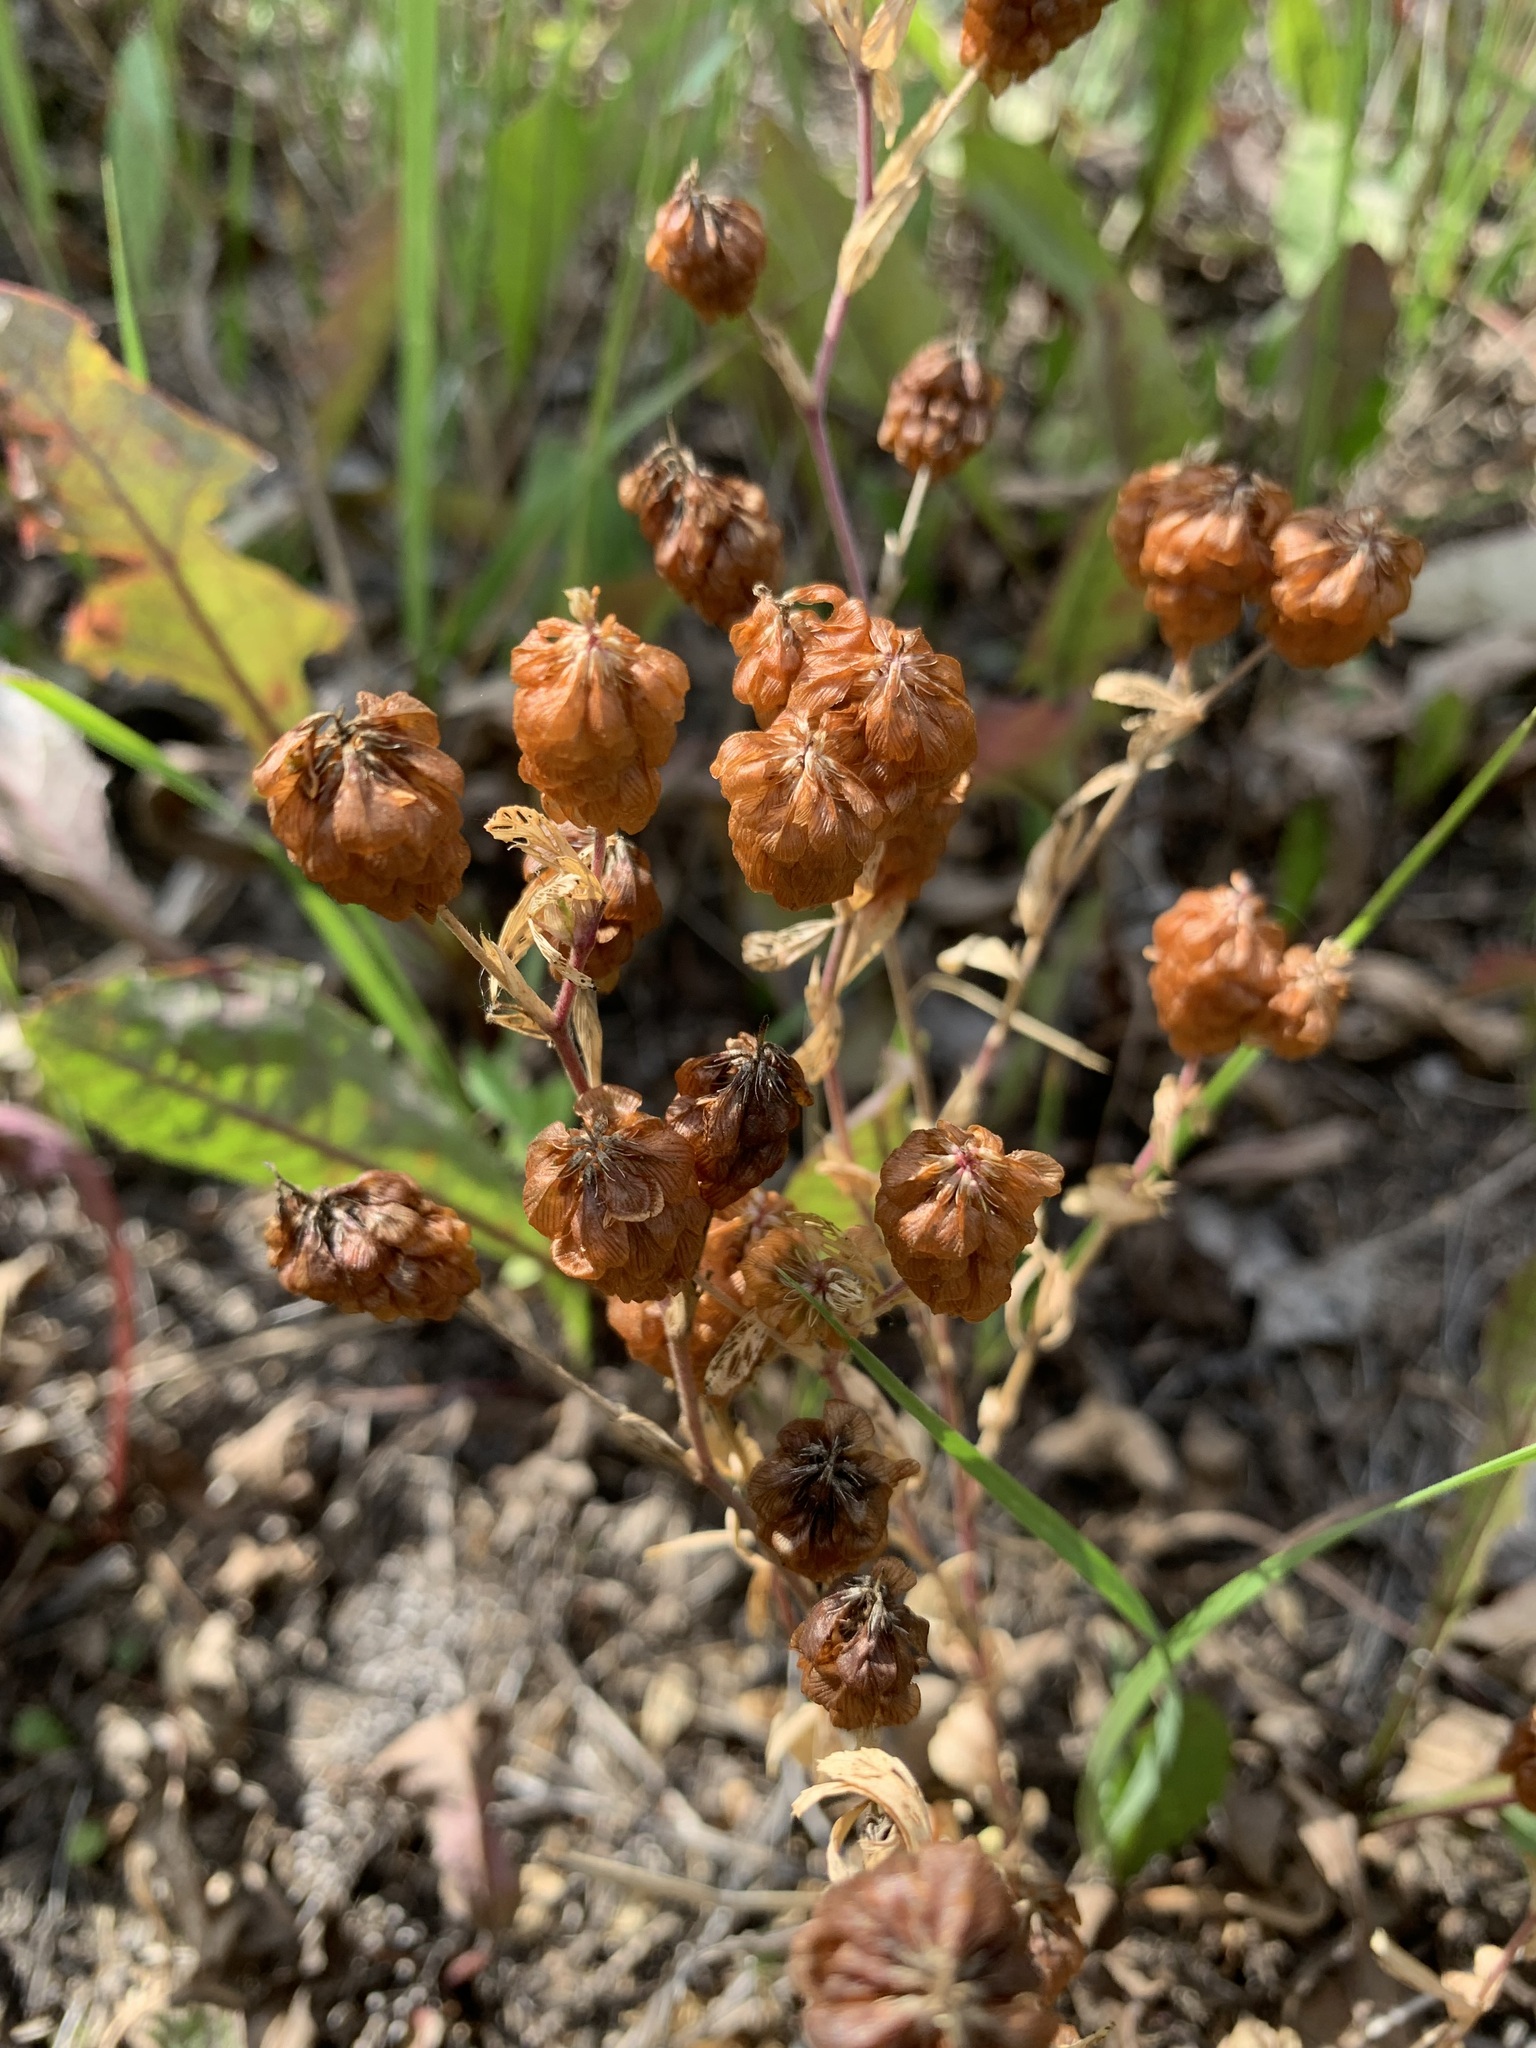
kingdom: Plantae
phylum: Tracheophyta
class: Magnoliopsida
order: Fabales
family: Fabaceae
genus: Trifolium
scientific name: Trifolium aureum
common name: Golden clover
